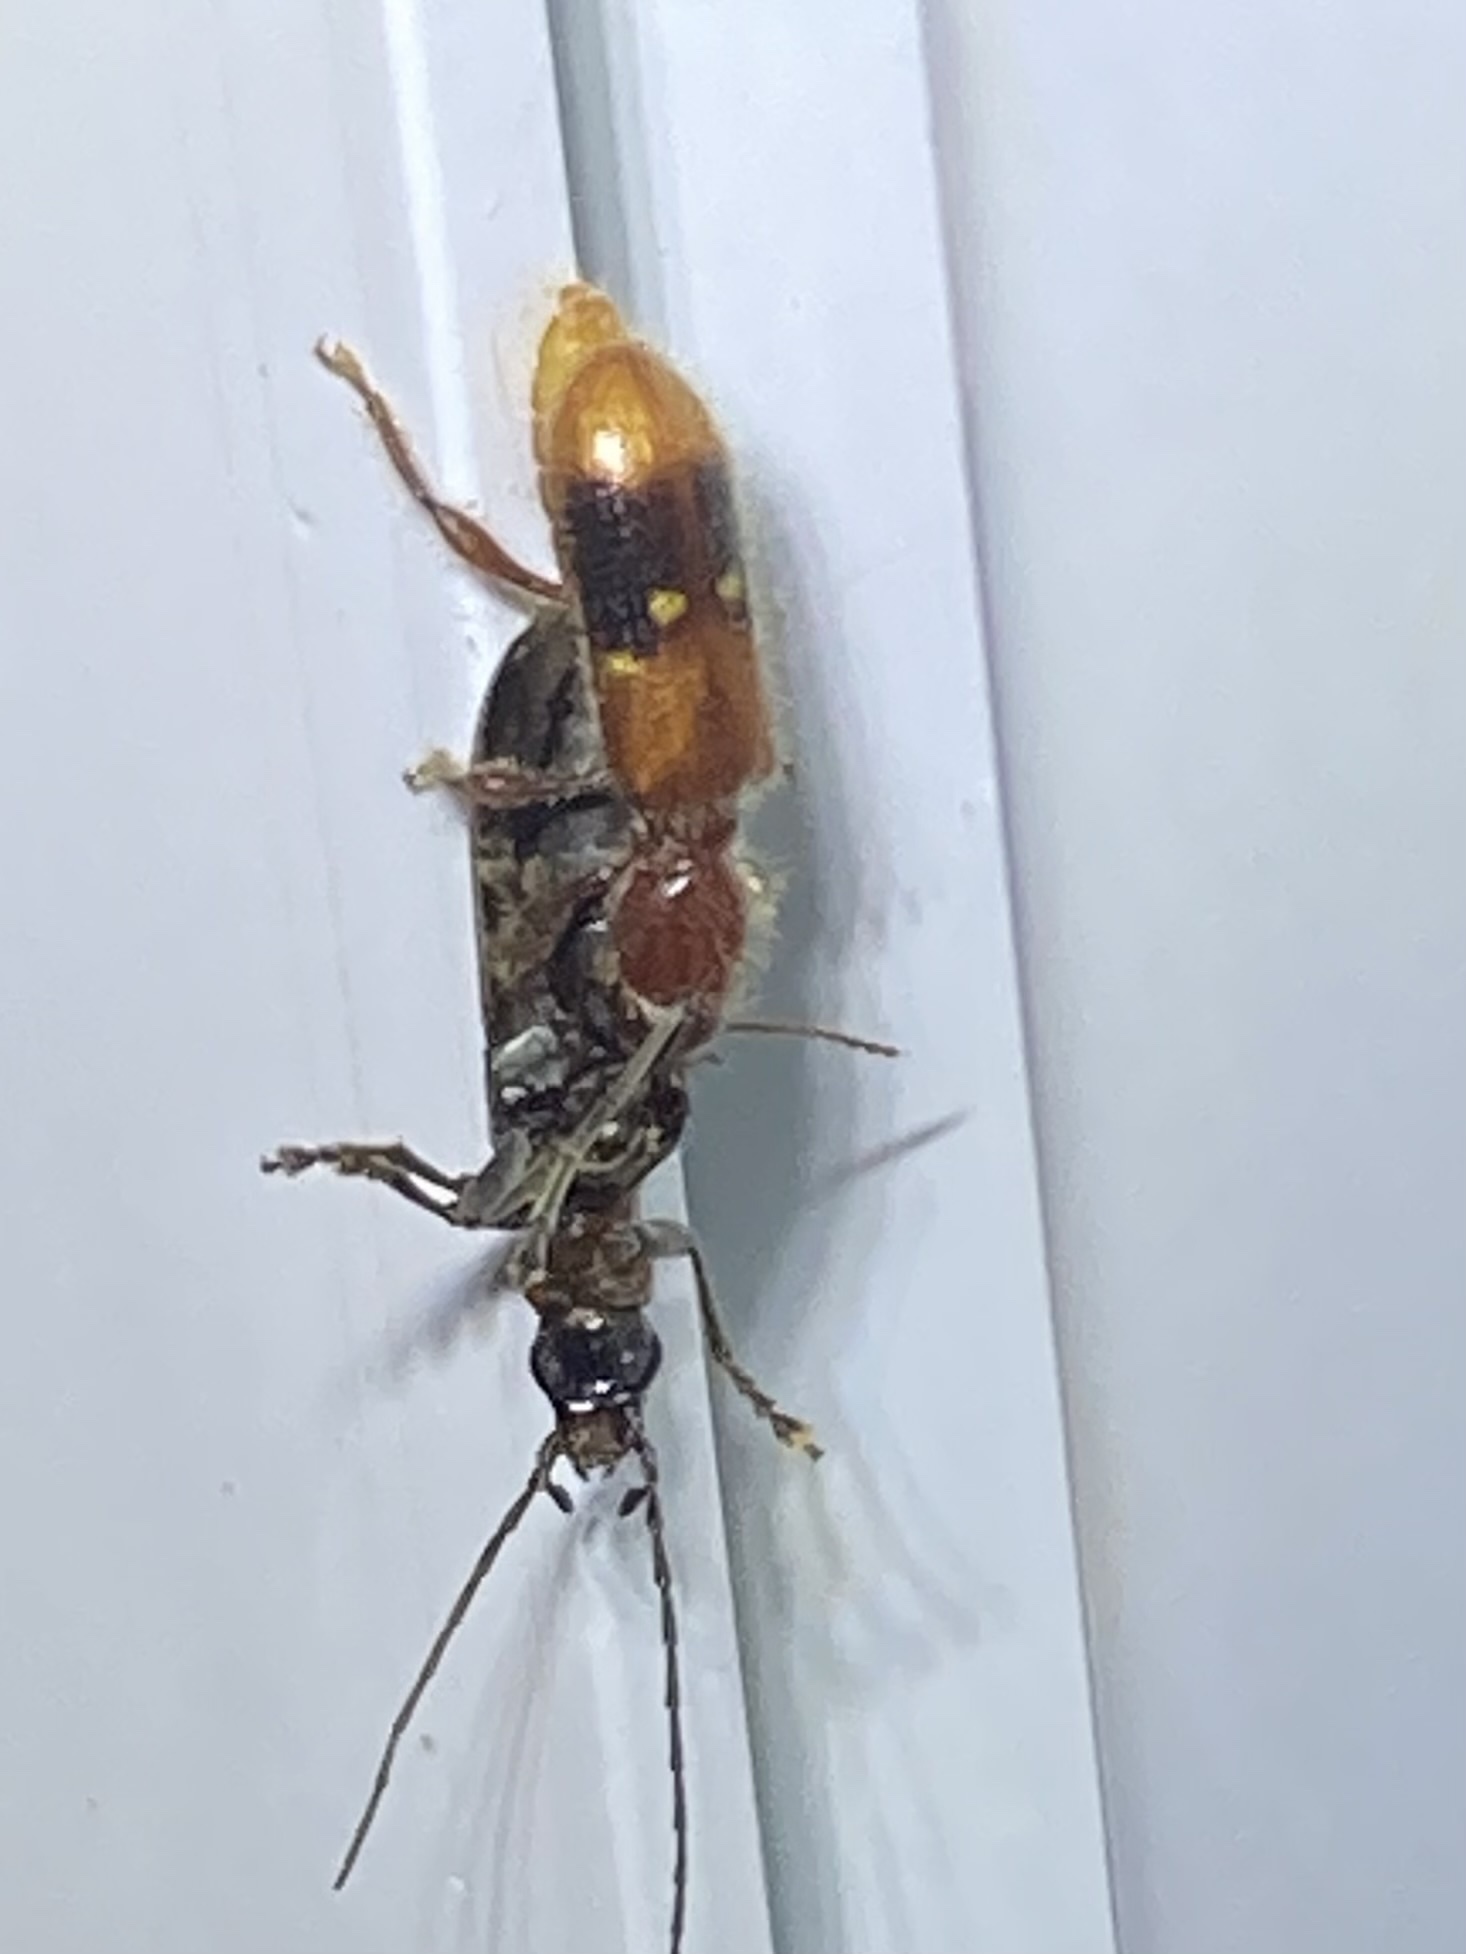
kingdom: Animalia
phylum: Arthropoda
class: Insecta
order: Coleoptera
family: Cleridae
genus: Priocera
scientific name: Priocera castanea
